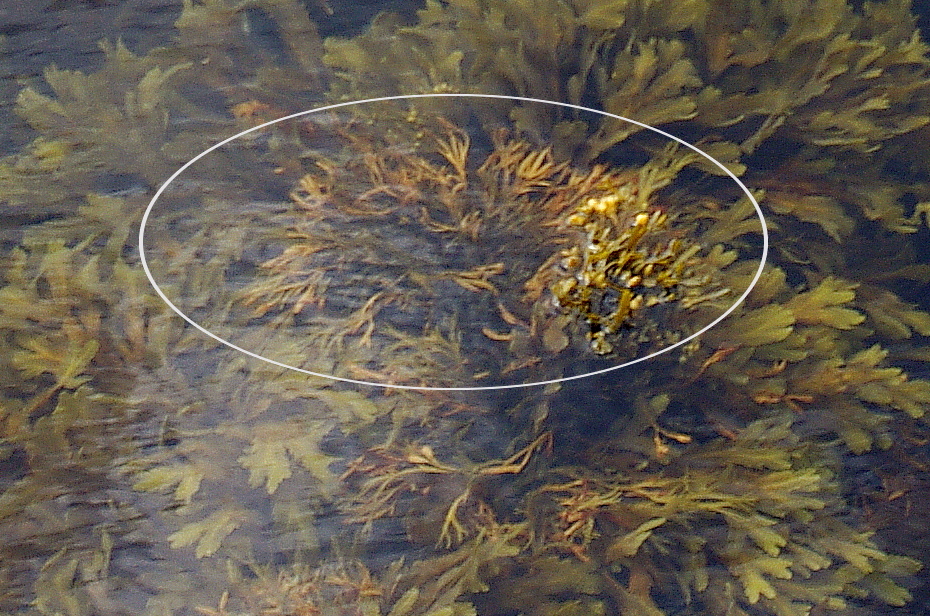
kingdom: Chromista
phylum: Ochrophyta
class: Phaeophyceae
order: Fucales
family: Fucaceae
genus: Fucus
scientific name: Fucus distichus
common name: Rockweed
